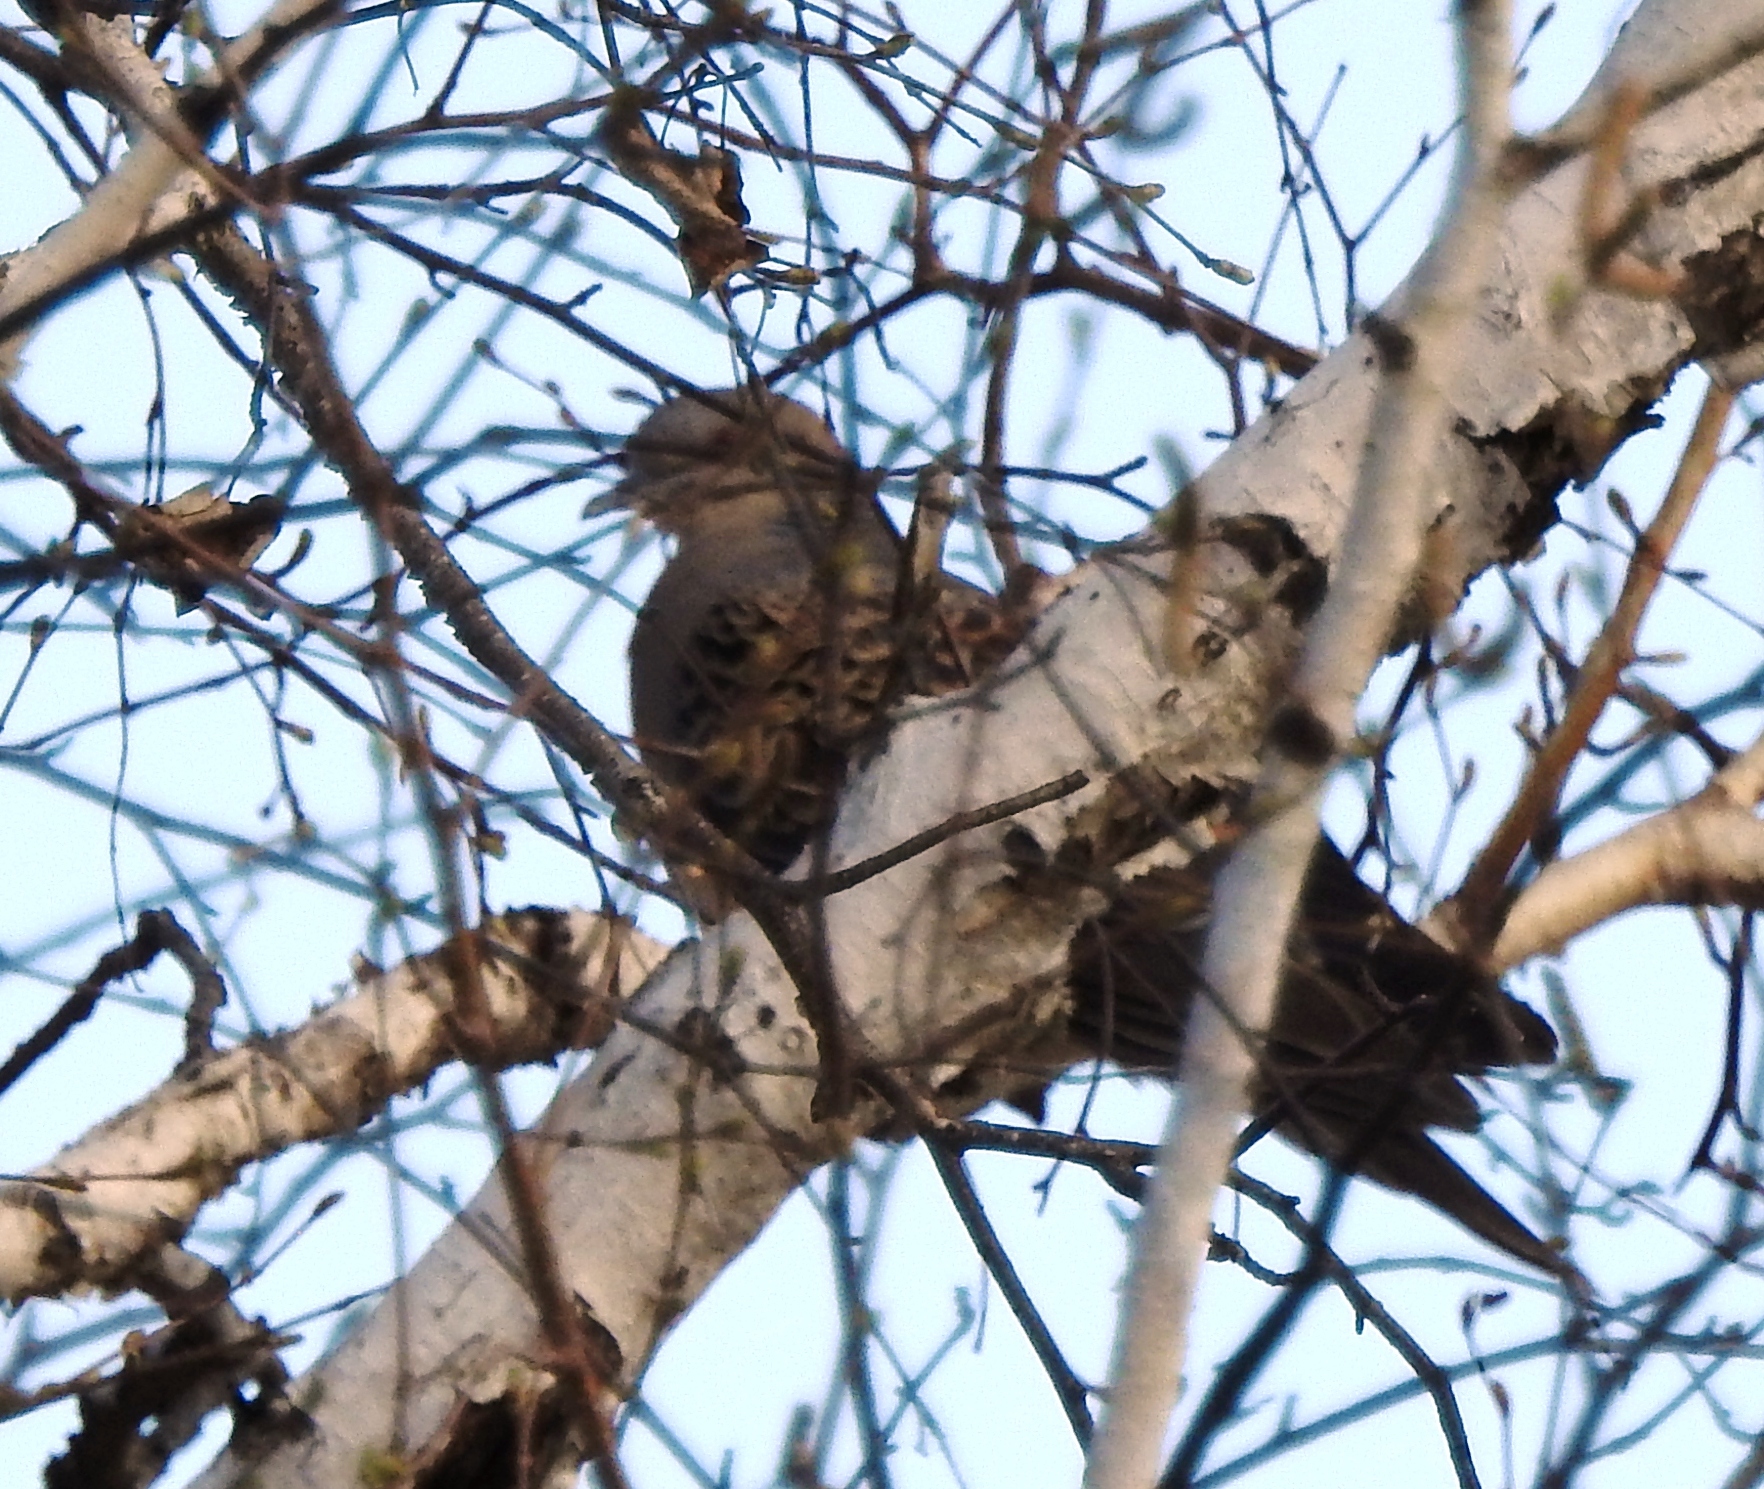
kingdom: Animalia
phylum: Chordata
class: Aves
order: Columbiformes
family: Columbidae
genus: Streptopelia
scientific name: Streptopelia orientalis
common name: Oriental turtle dove
